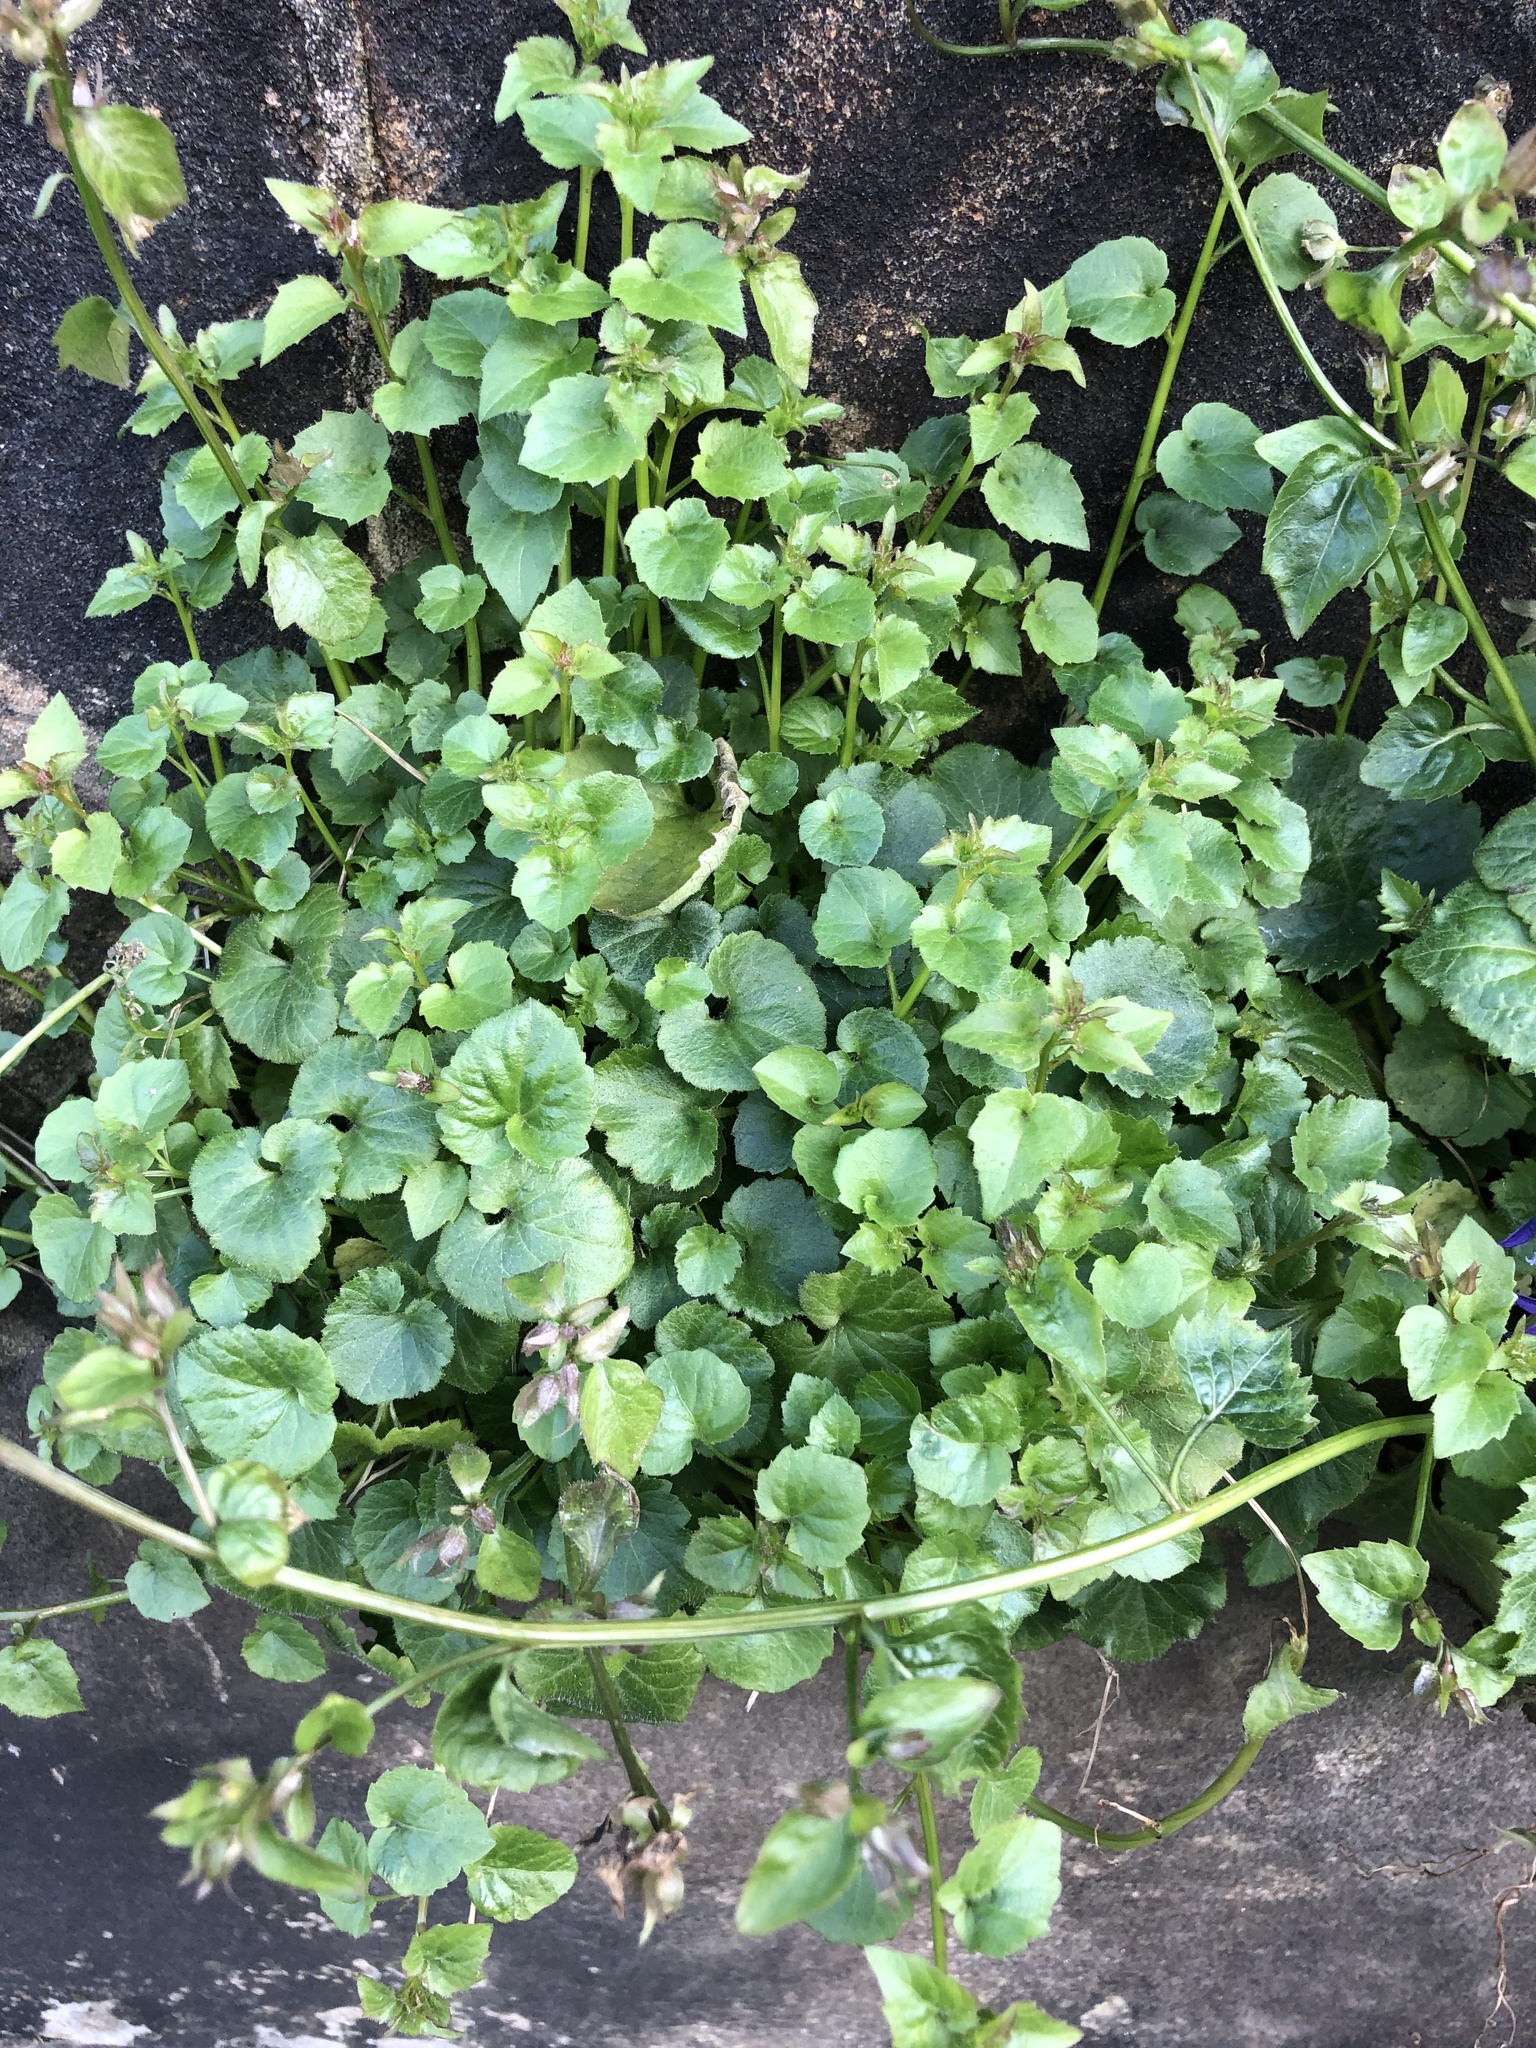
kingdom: Plantae
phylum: Tracheophyta
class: Magnoliopsida
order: Asterales
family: Campanulaceae
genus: Campanula
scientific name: Campanula poscharskyana
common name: Trailing bellflower
